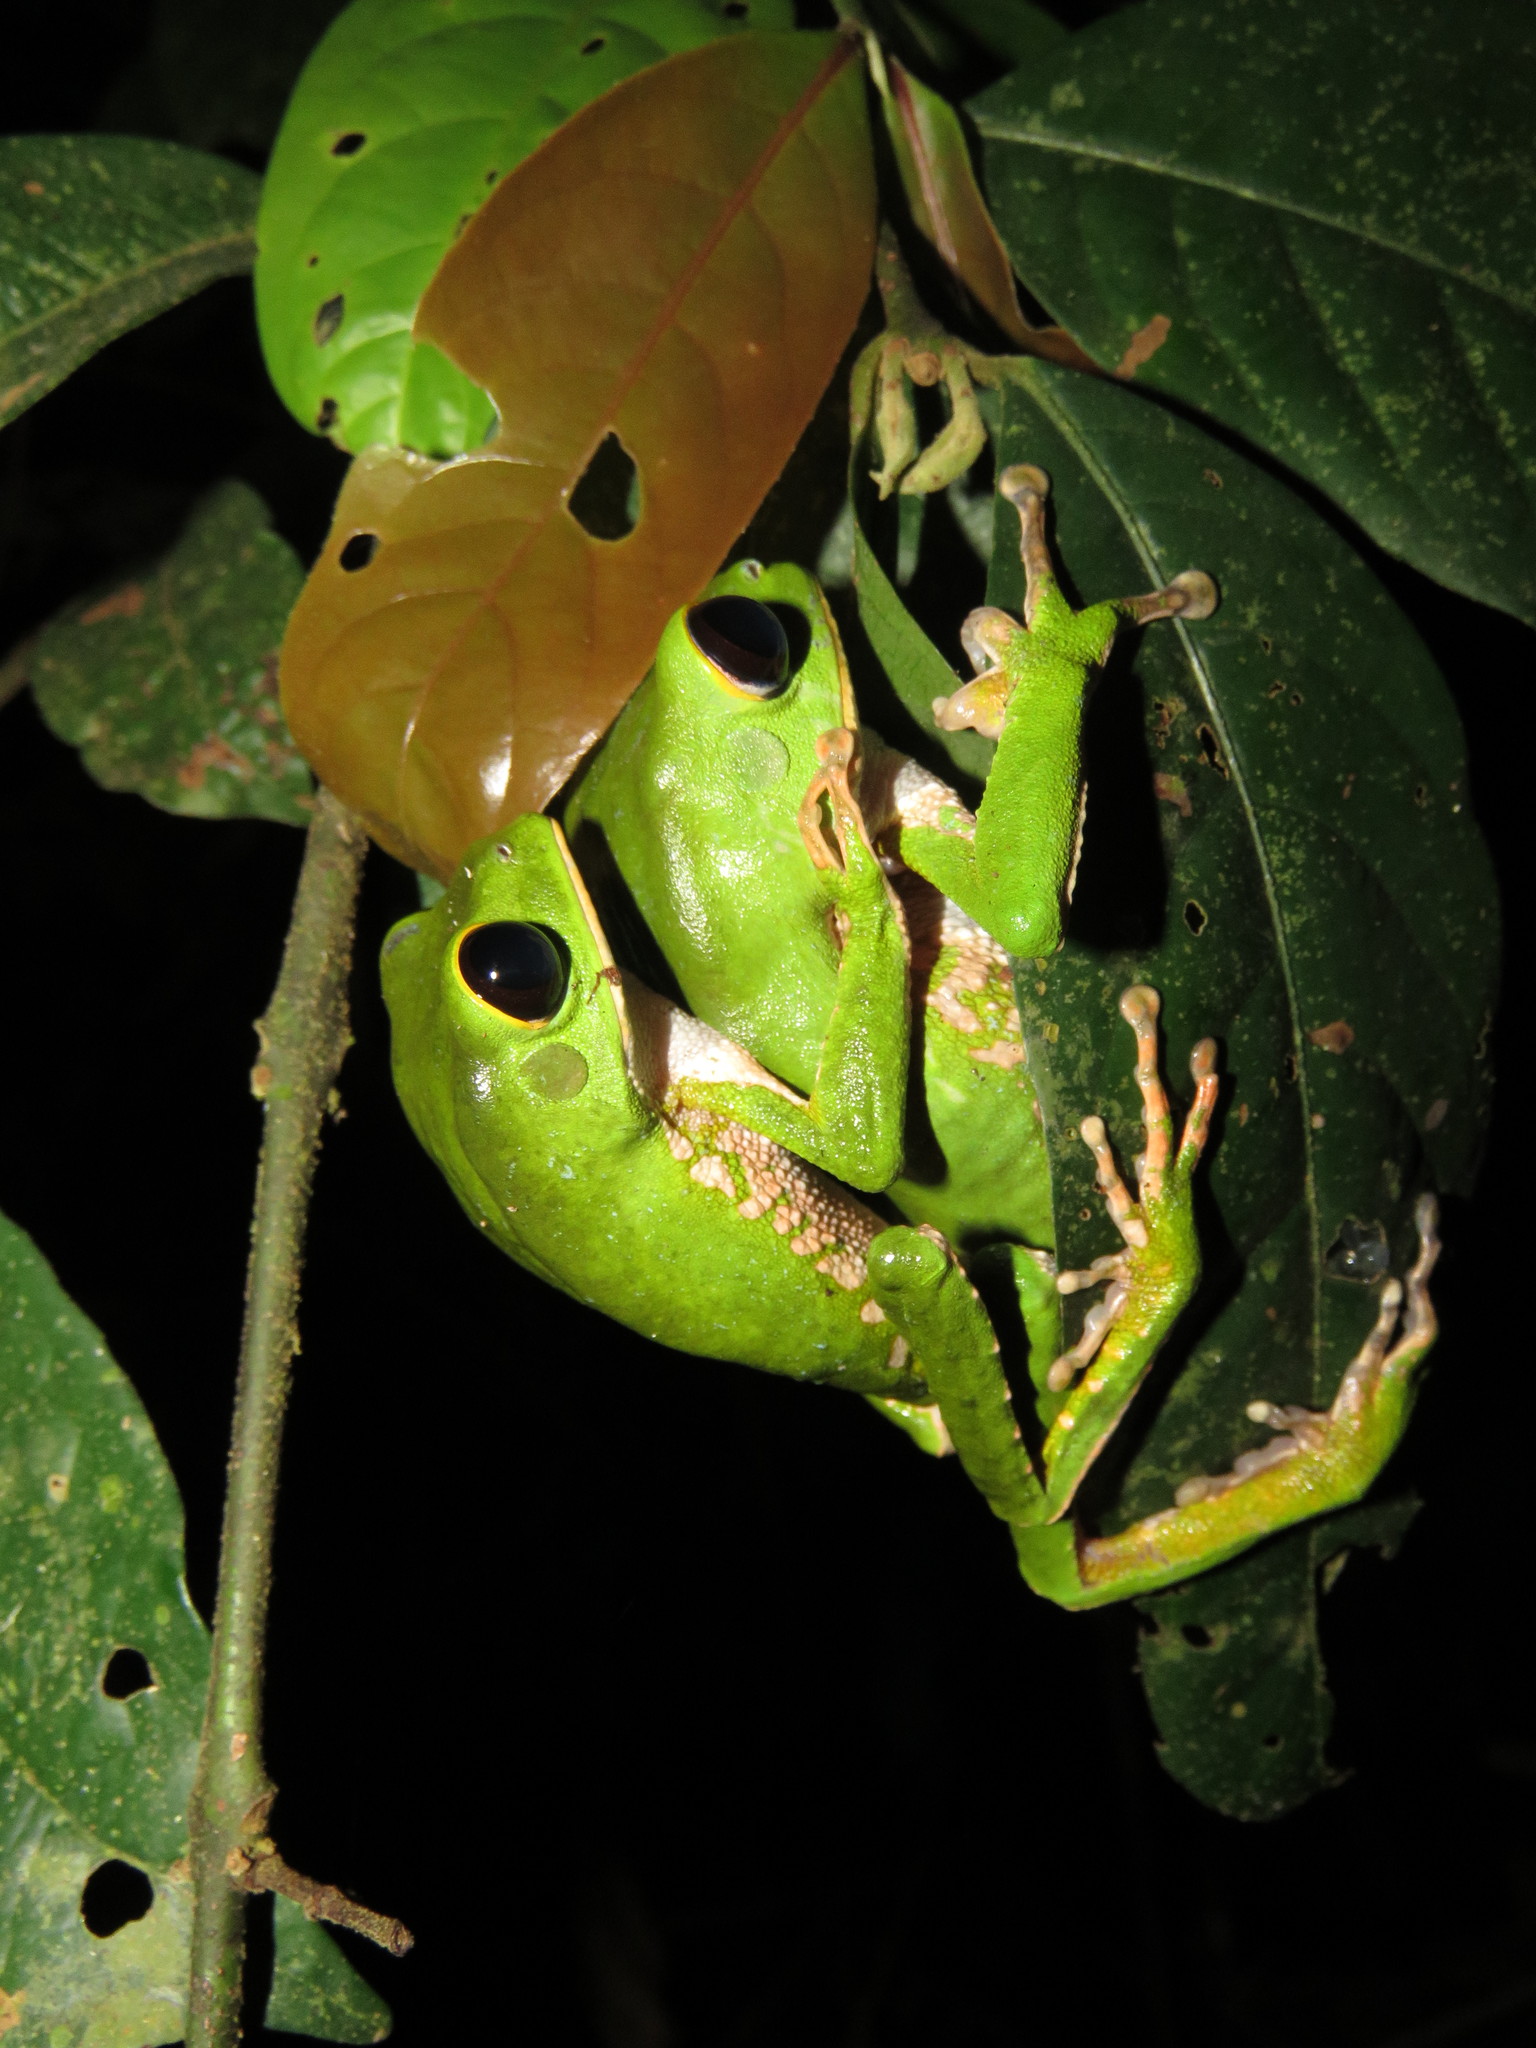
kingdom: Animalia
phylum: Chordata
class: Amphibia
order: Anura
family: Phyllomedusidae
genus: Phyllomedusa
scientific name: Phyllomedusa camba
